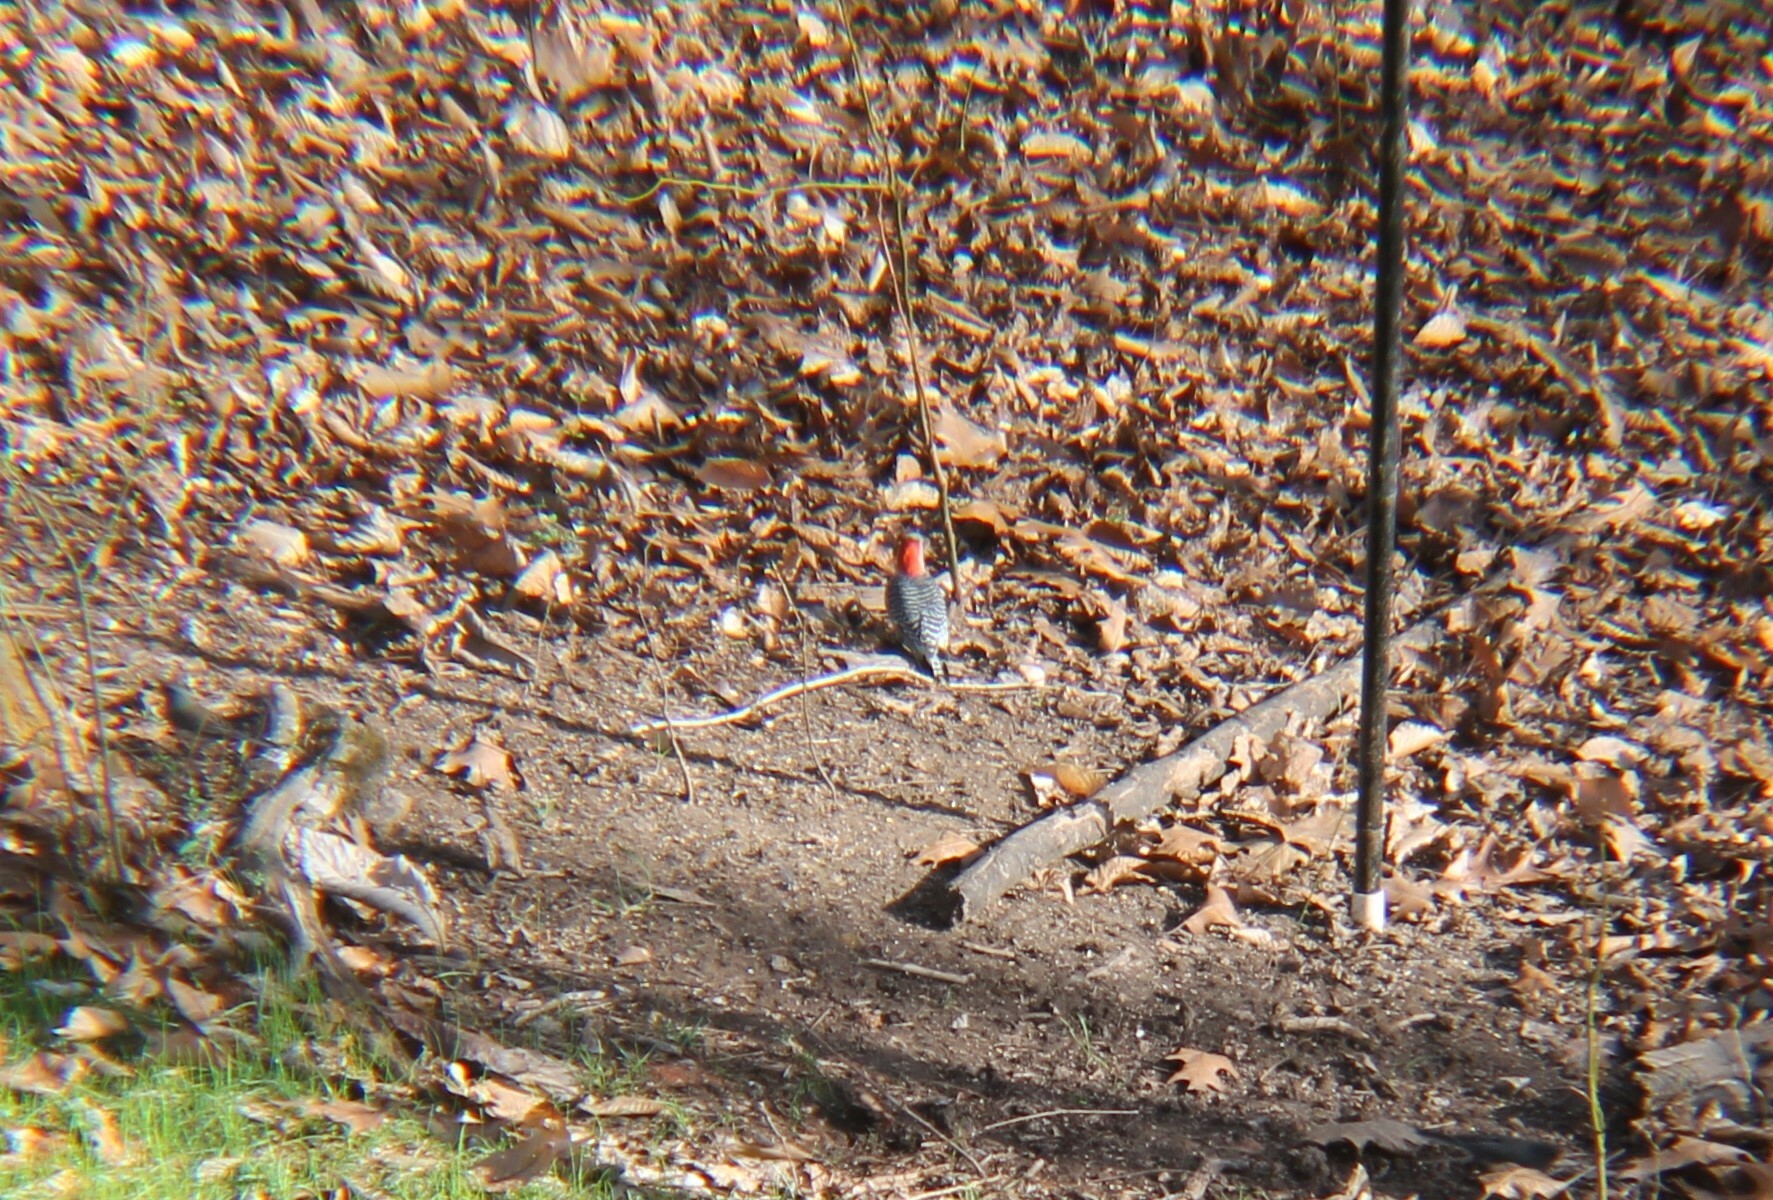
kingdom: Animalia
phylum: Chordata
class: Aves
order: Piciformes
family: Picidae
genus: Melanerpes
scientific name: Melanerpes carolinus
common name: Red-bellied woodpecker
